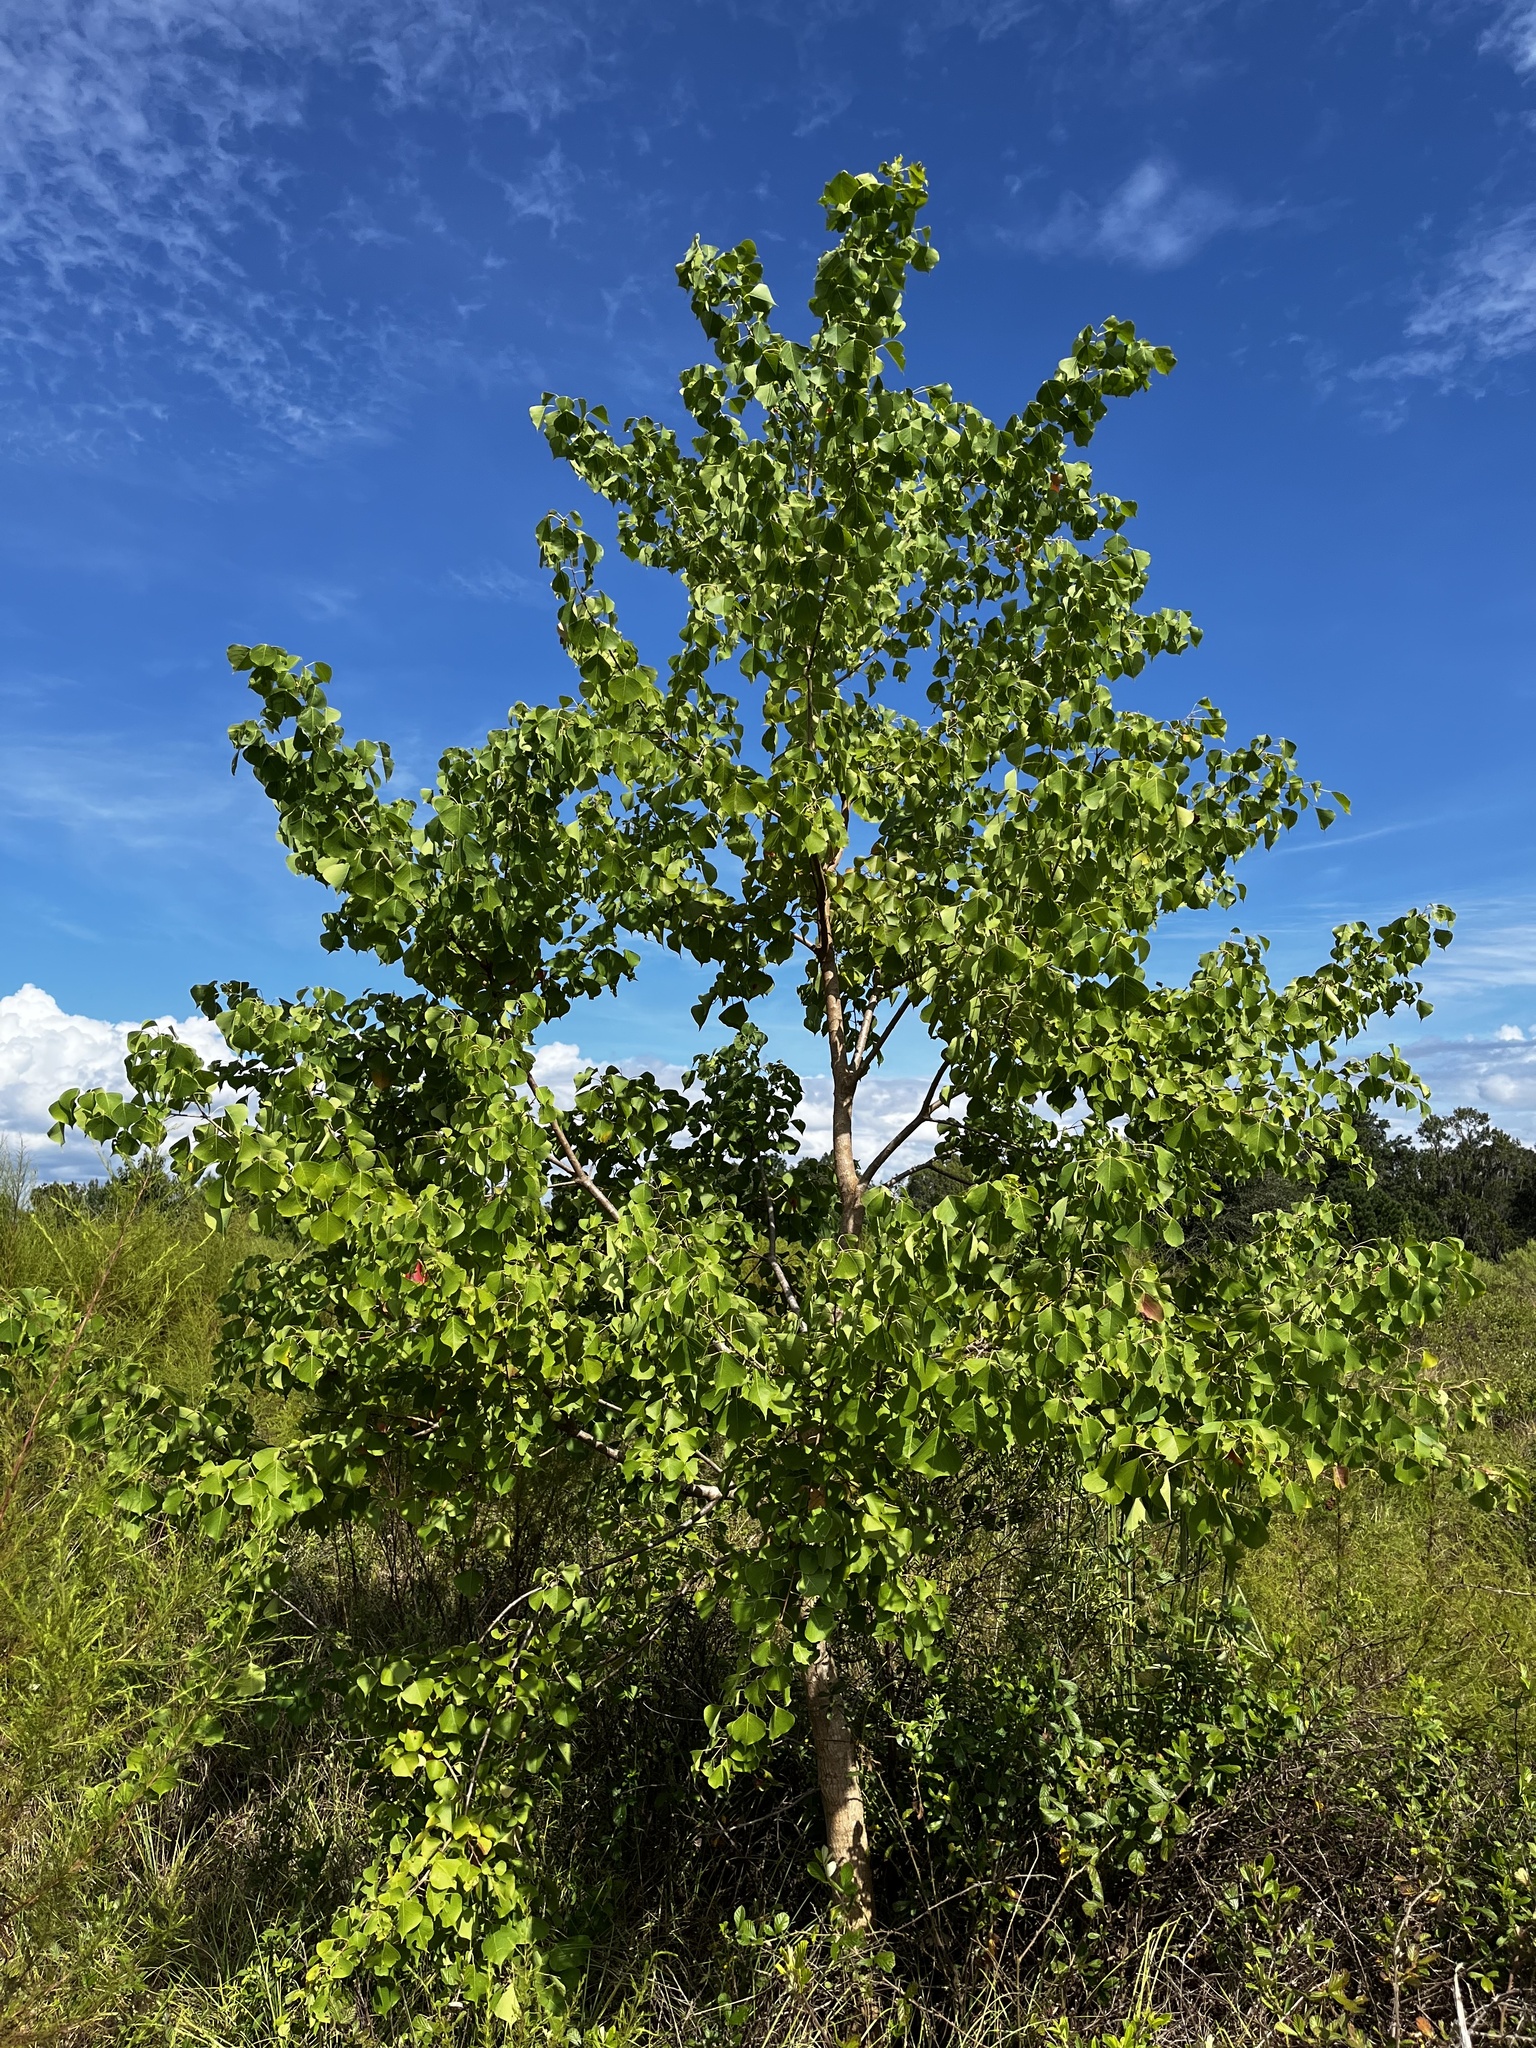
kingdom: Plantae
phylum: Tracheophyta
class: Magnoliopsida
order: Malpighiales
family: Euphorbiaceae
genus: Triadica
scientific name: Triadica sebifera
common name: Chinese tallow
